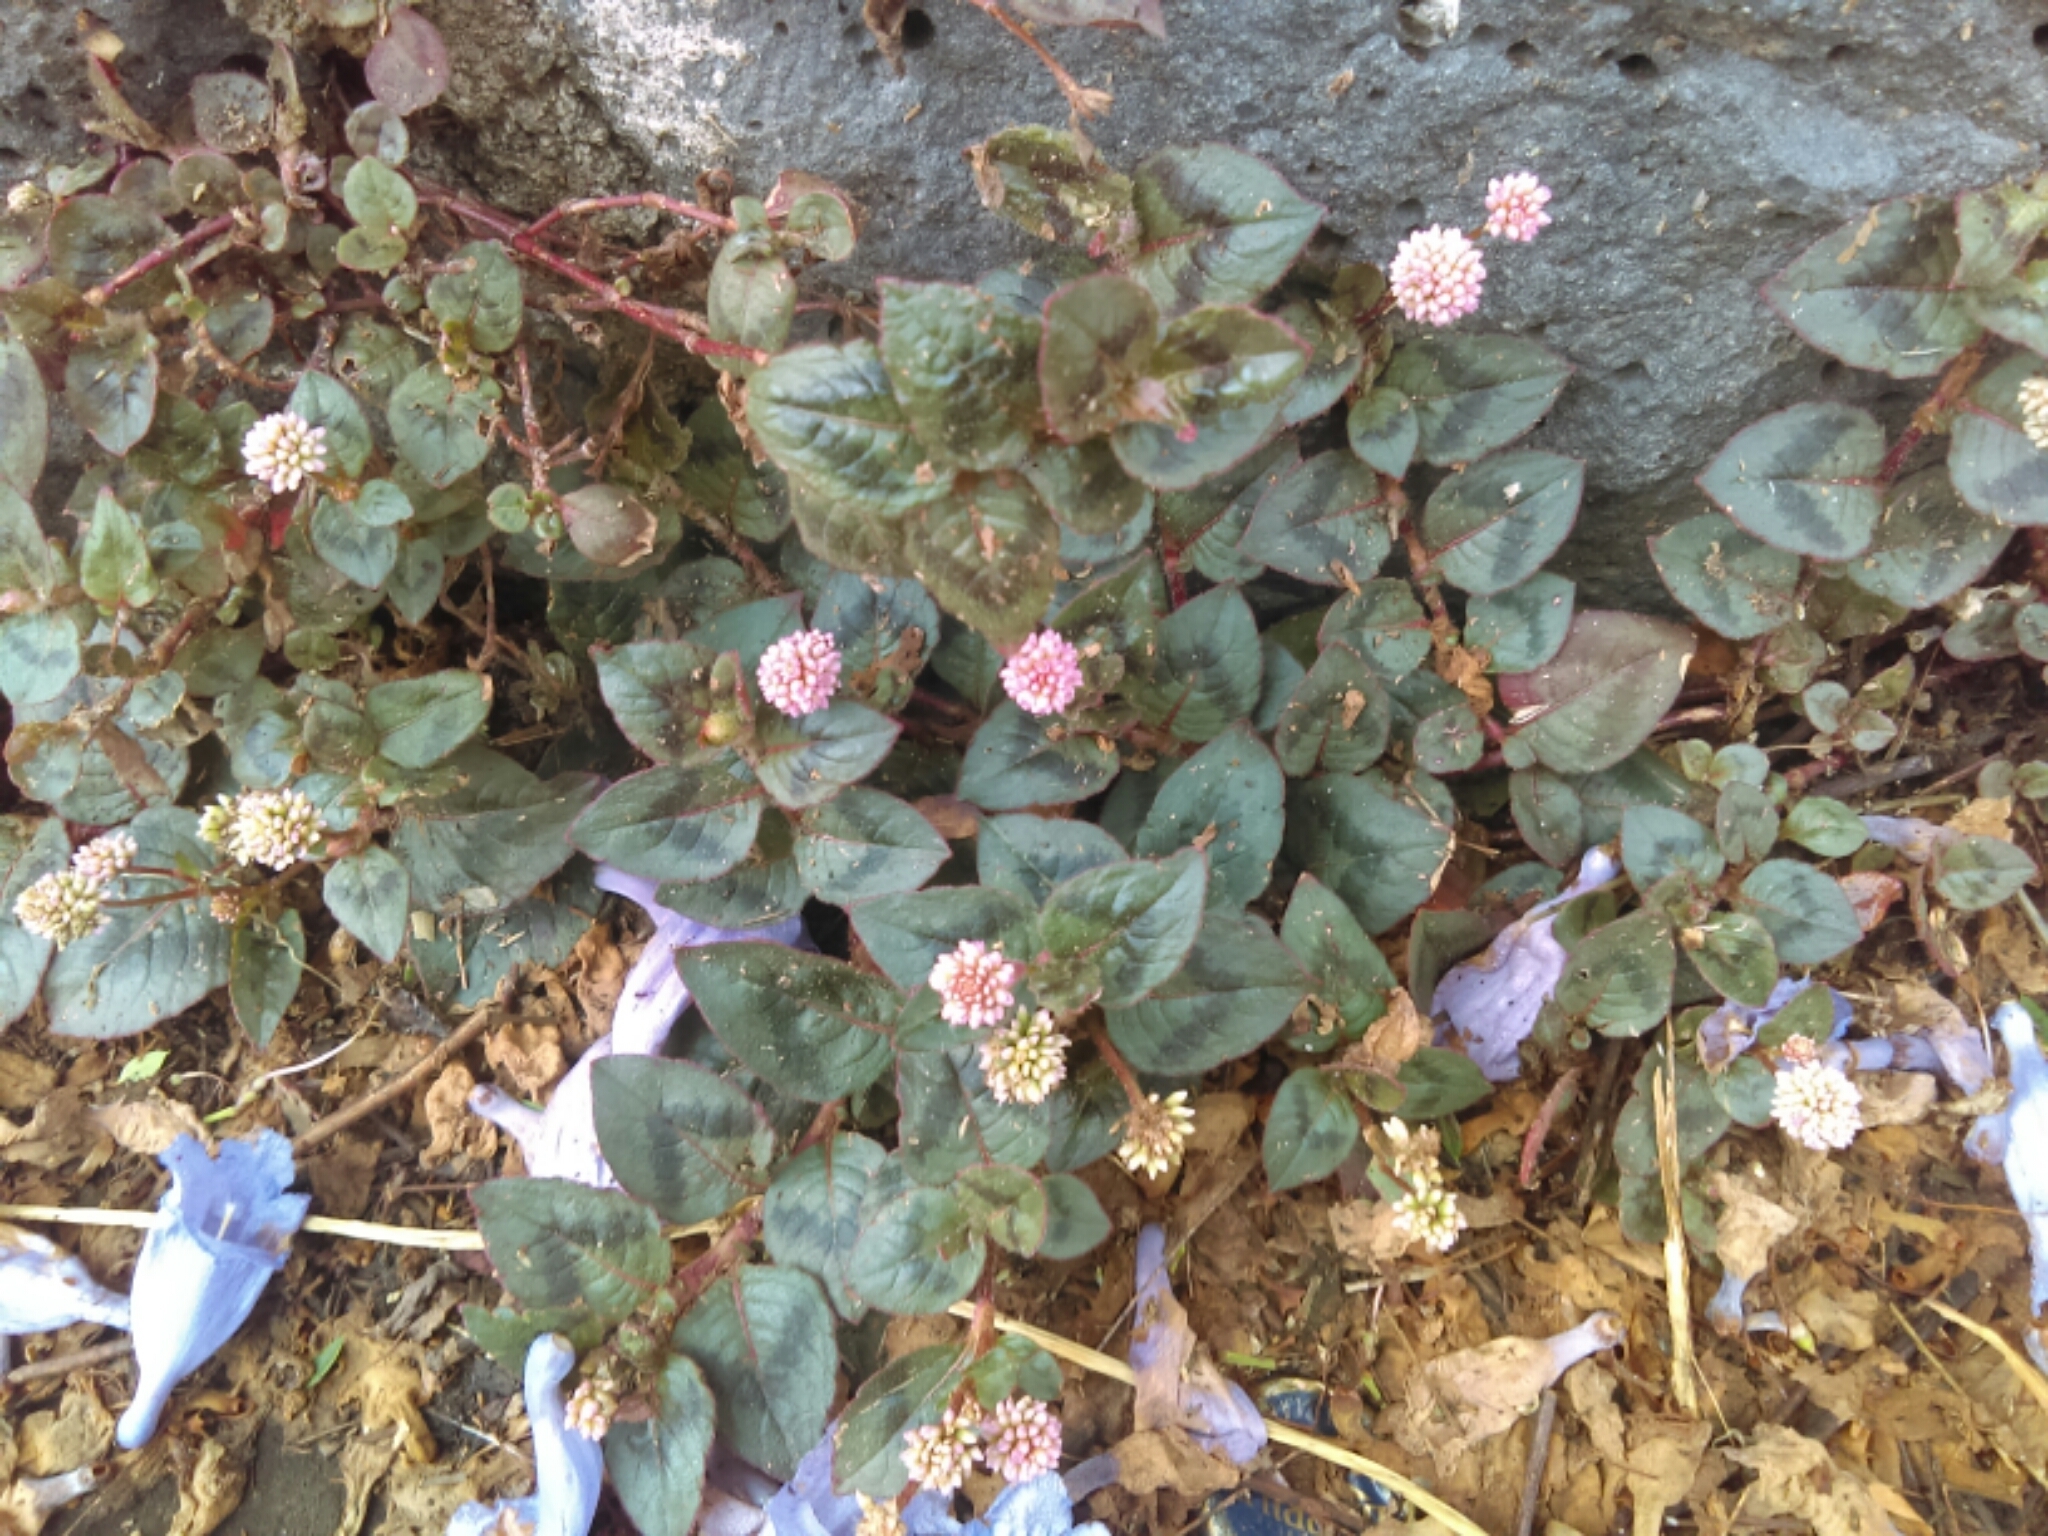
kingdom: Plantae
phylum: Tracheophyta
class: Magnoliopsida
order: Caryophyllales
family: Polygonaceae
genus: Persicaria
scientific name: Persicaria capitata
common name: Pinkhead smartweed
